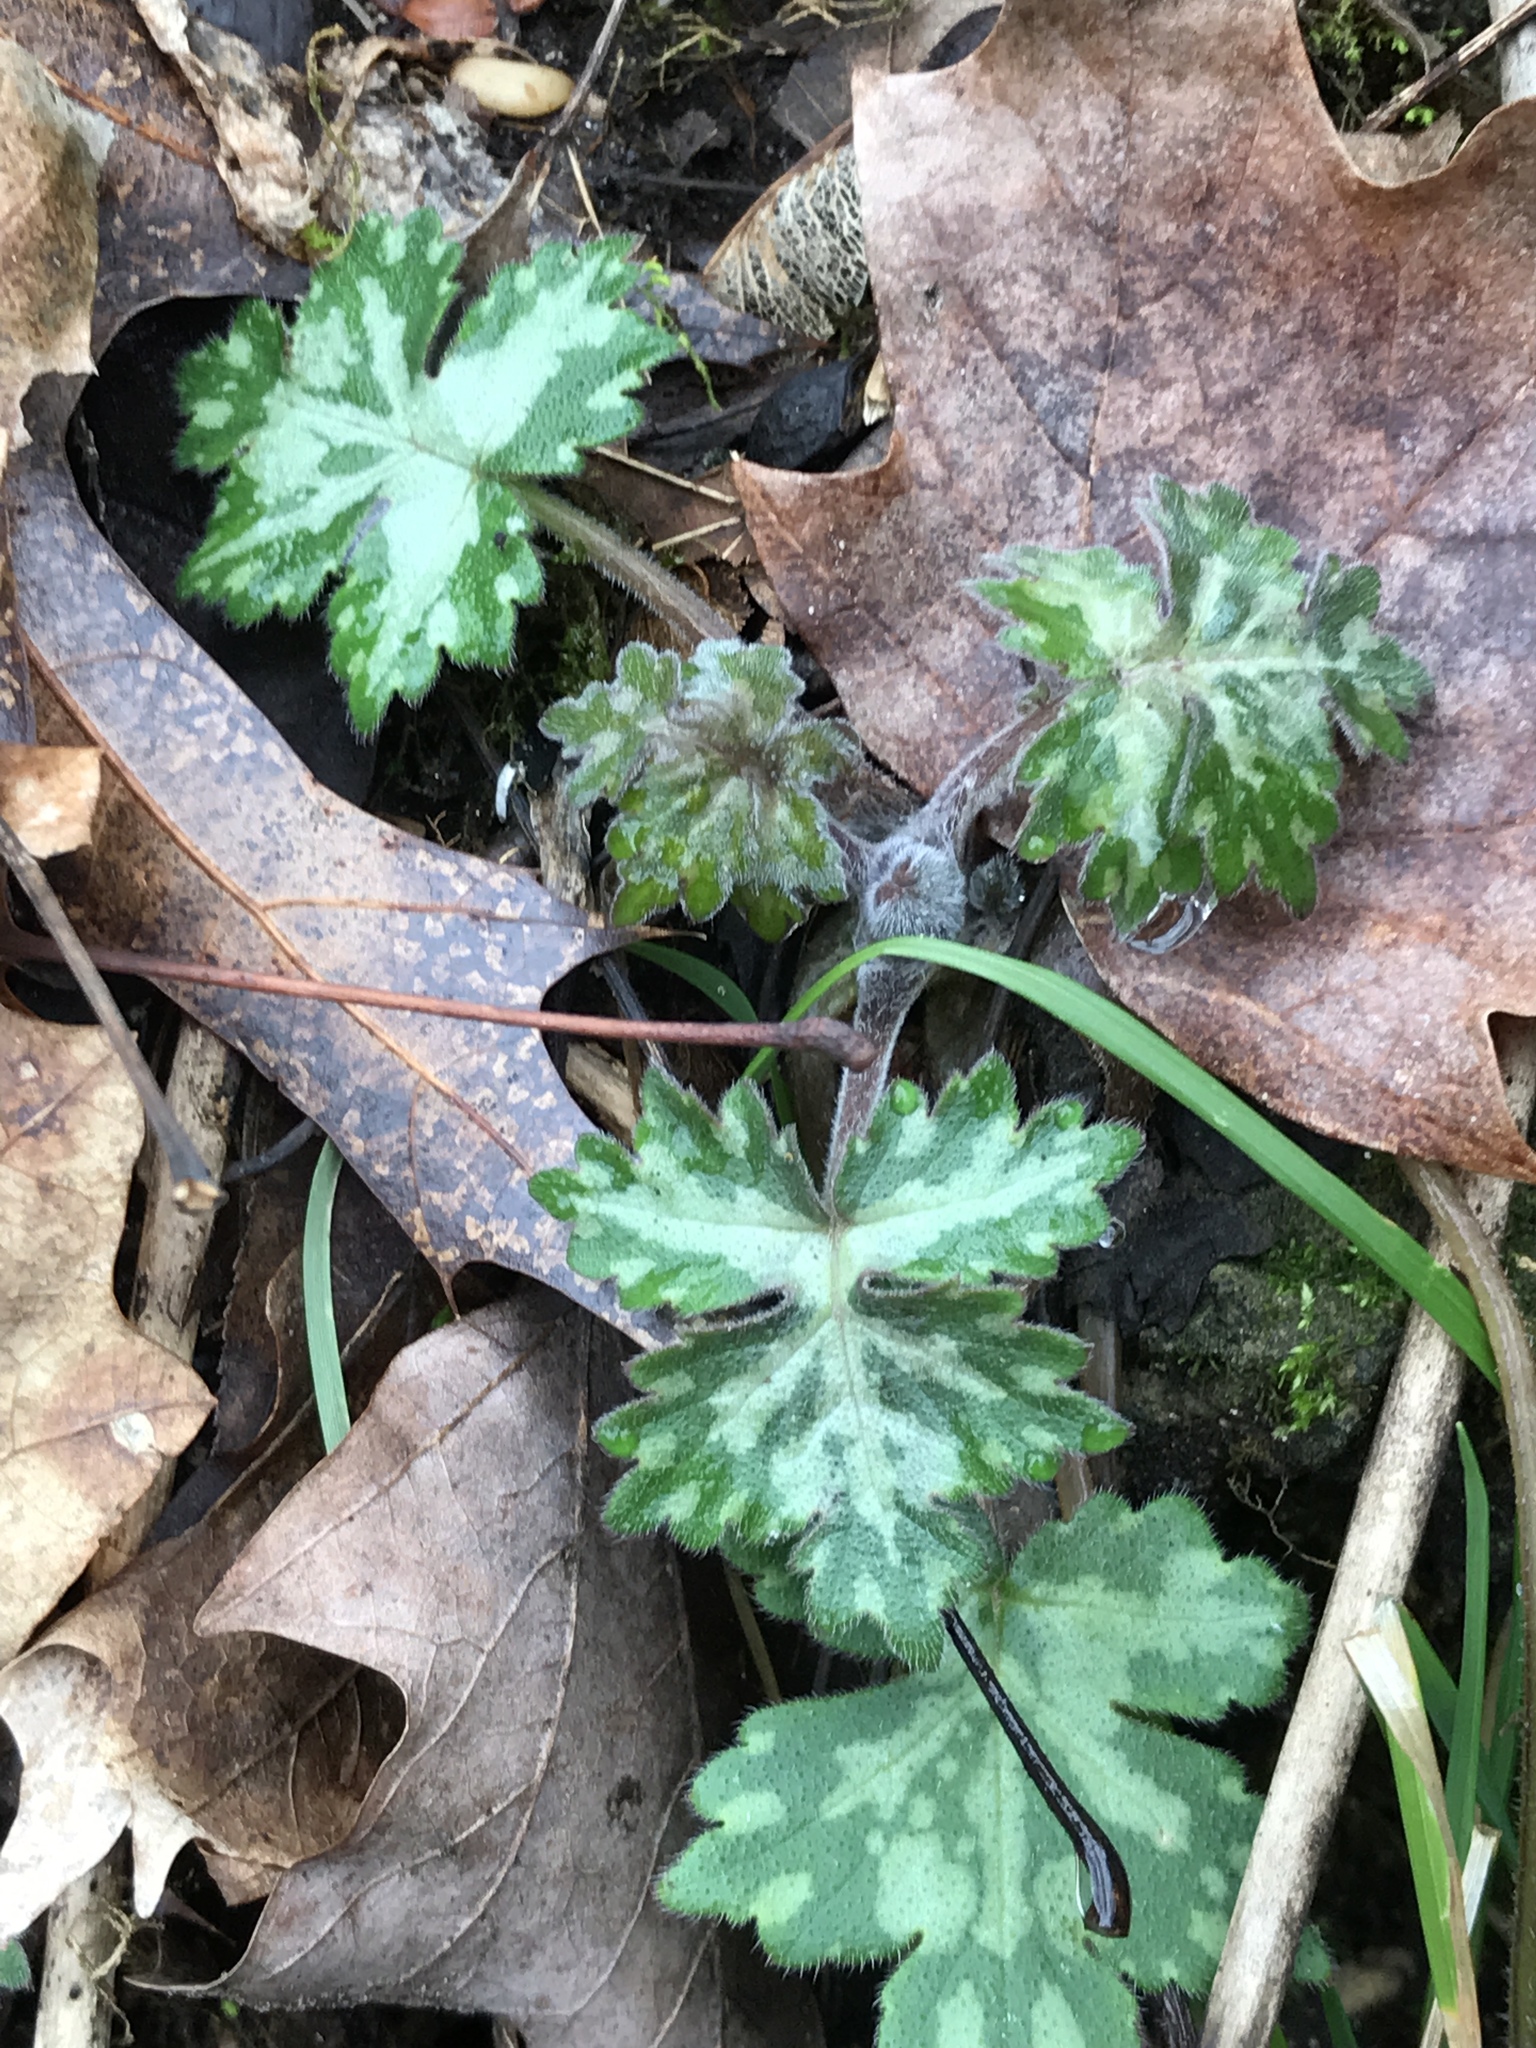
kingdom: Plantae
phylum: Tracheophyta
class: Magnoliopsida
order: Boraginales
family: Hydrophyllaceae
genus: Hydrophyllum
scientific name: Hydrophyllum appendiculatum
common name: Appendaged waterleaf
